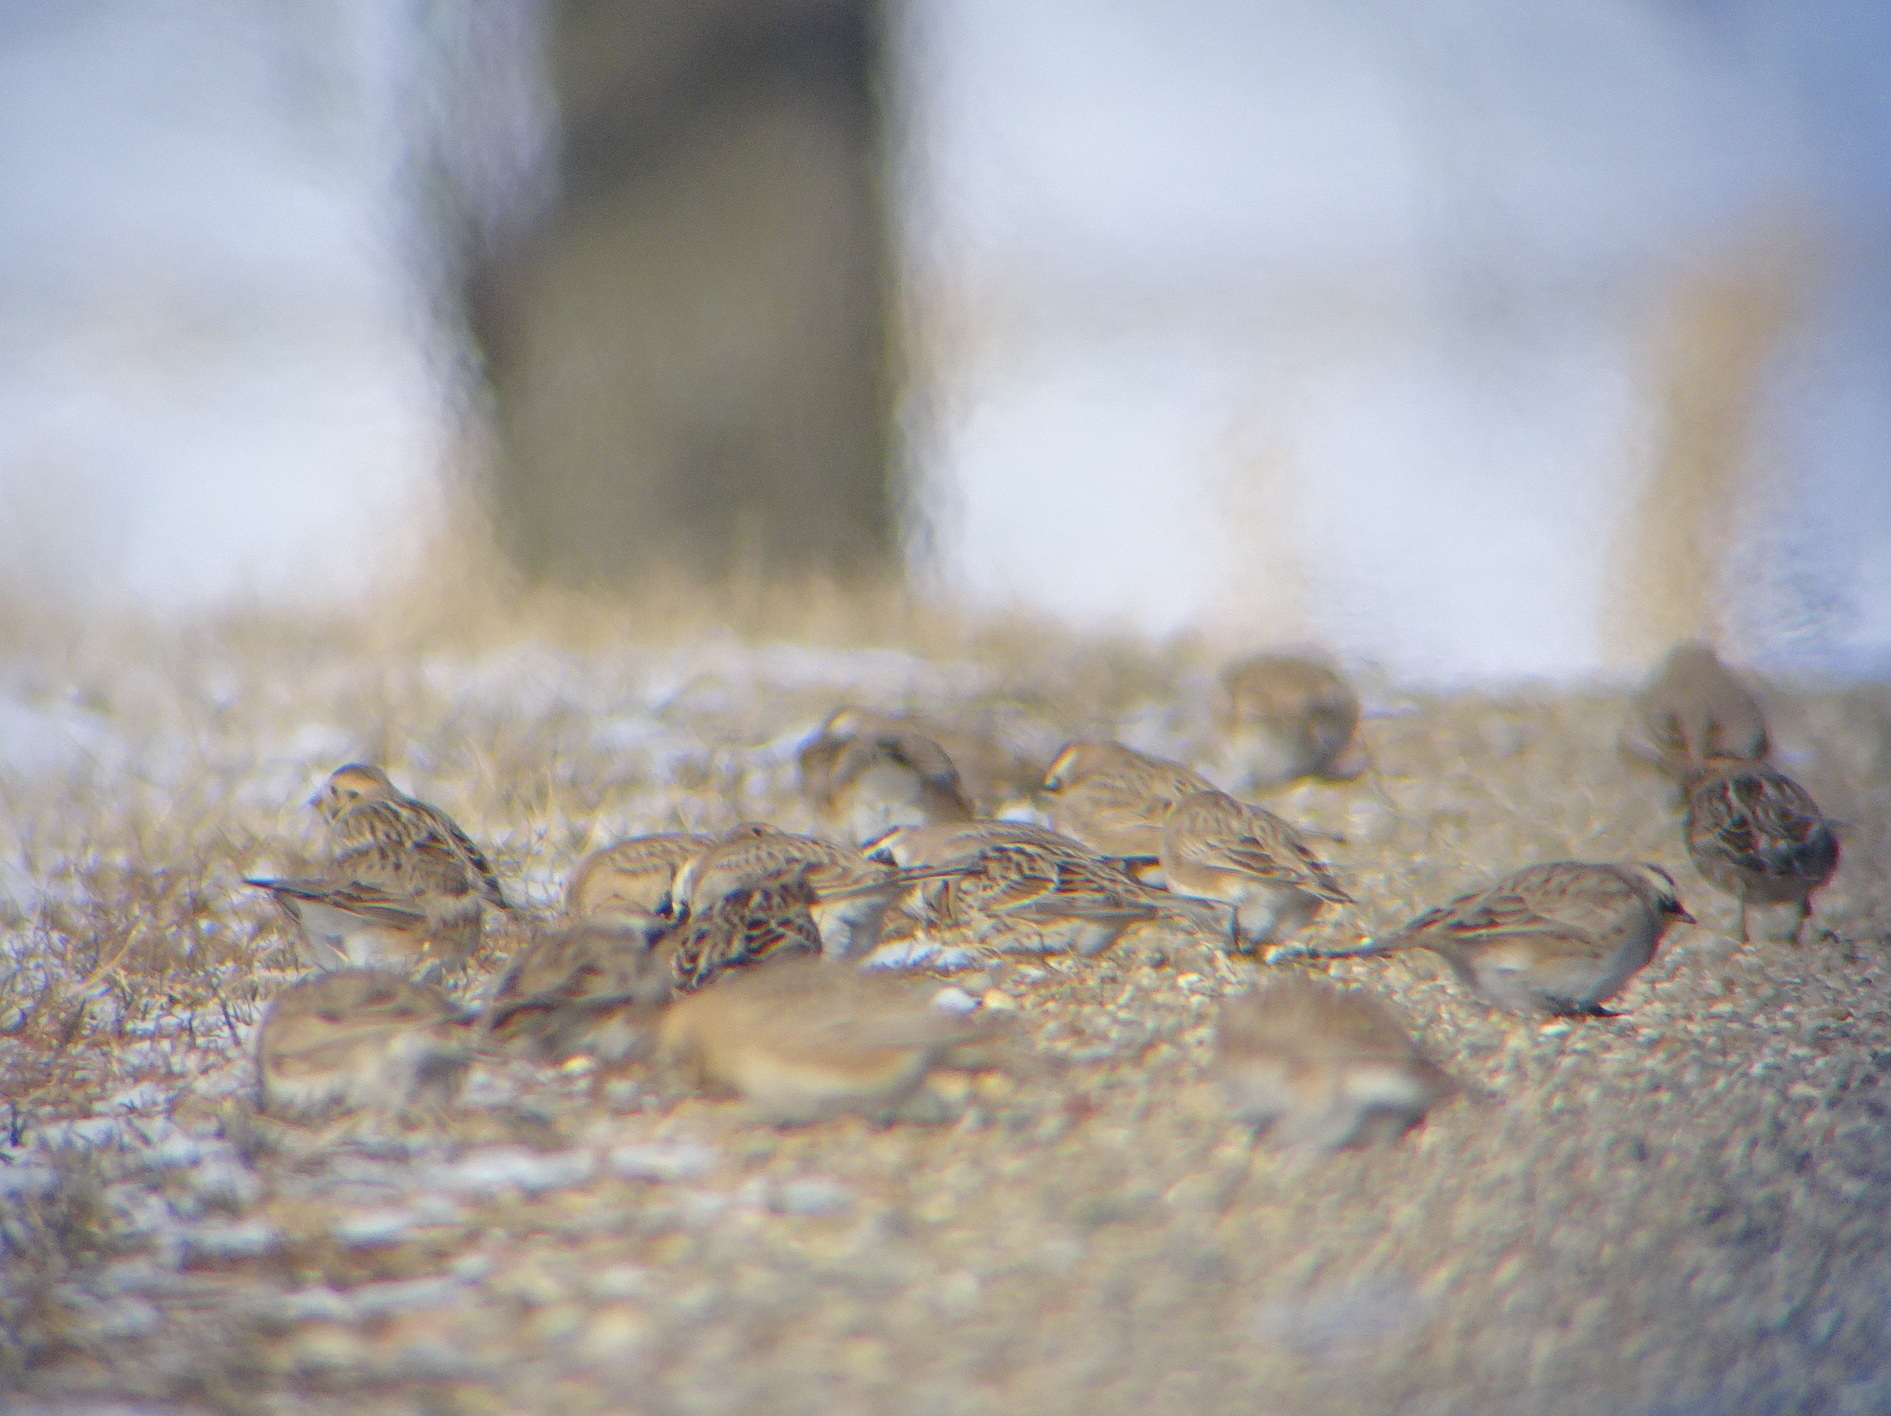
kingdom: Animalia
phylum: Chordata
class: Aves
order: Passeriformes
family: Alaudidae
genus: Eremophila
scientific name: Eremophila alpestris
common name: Horned lark
